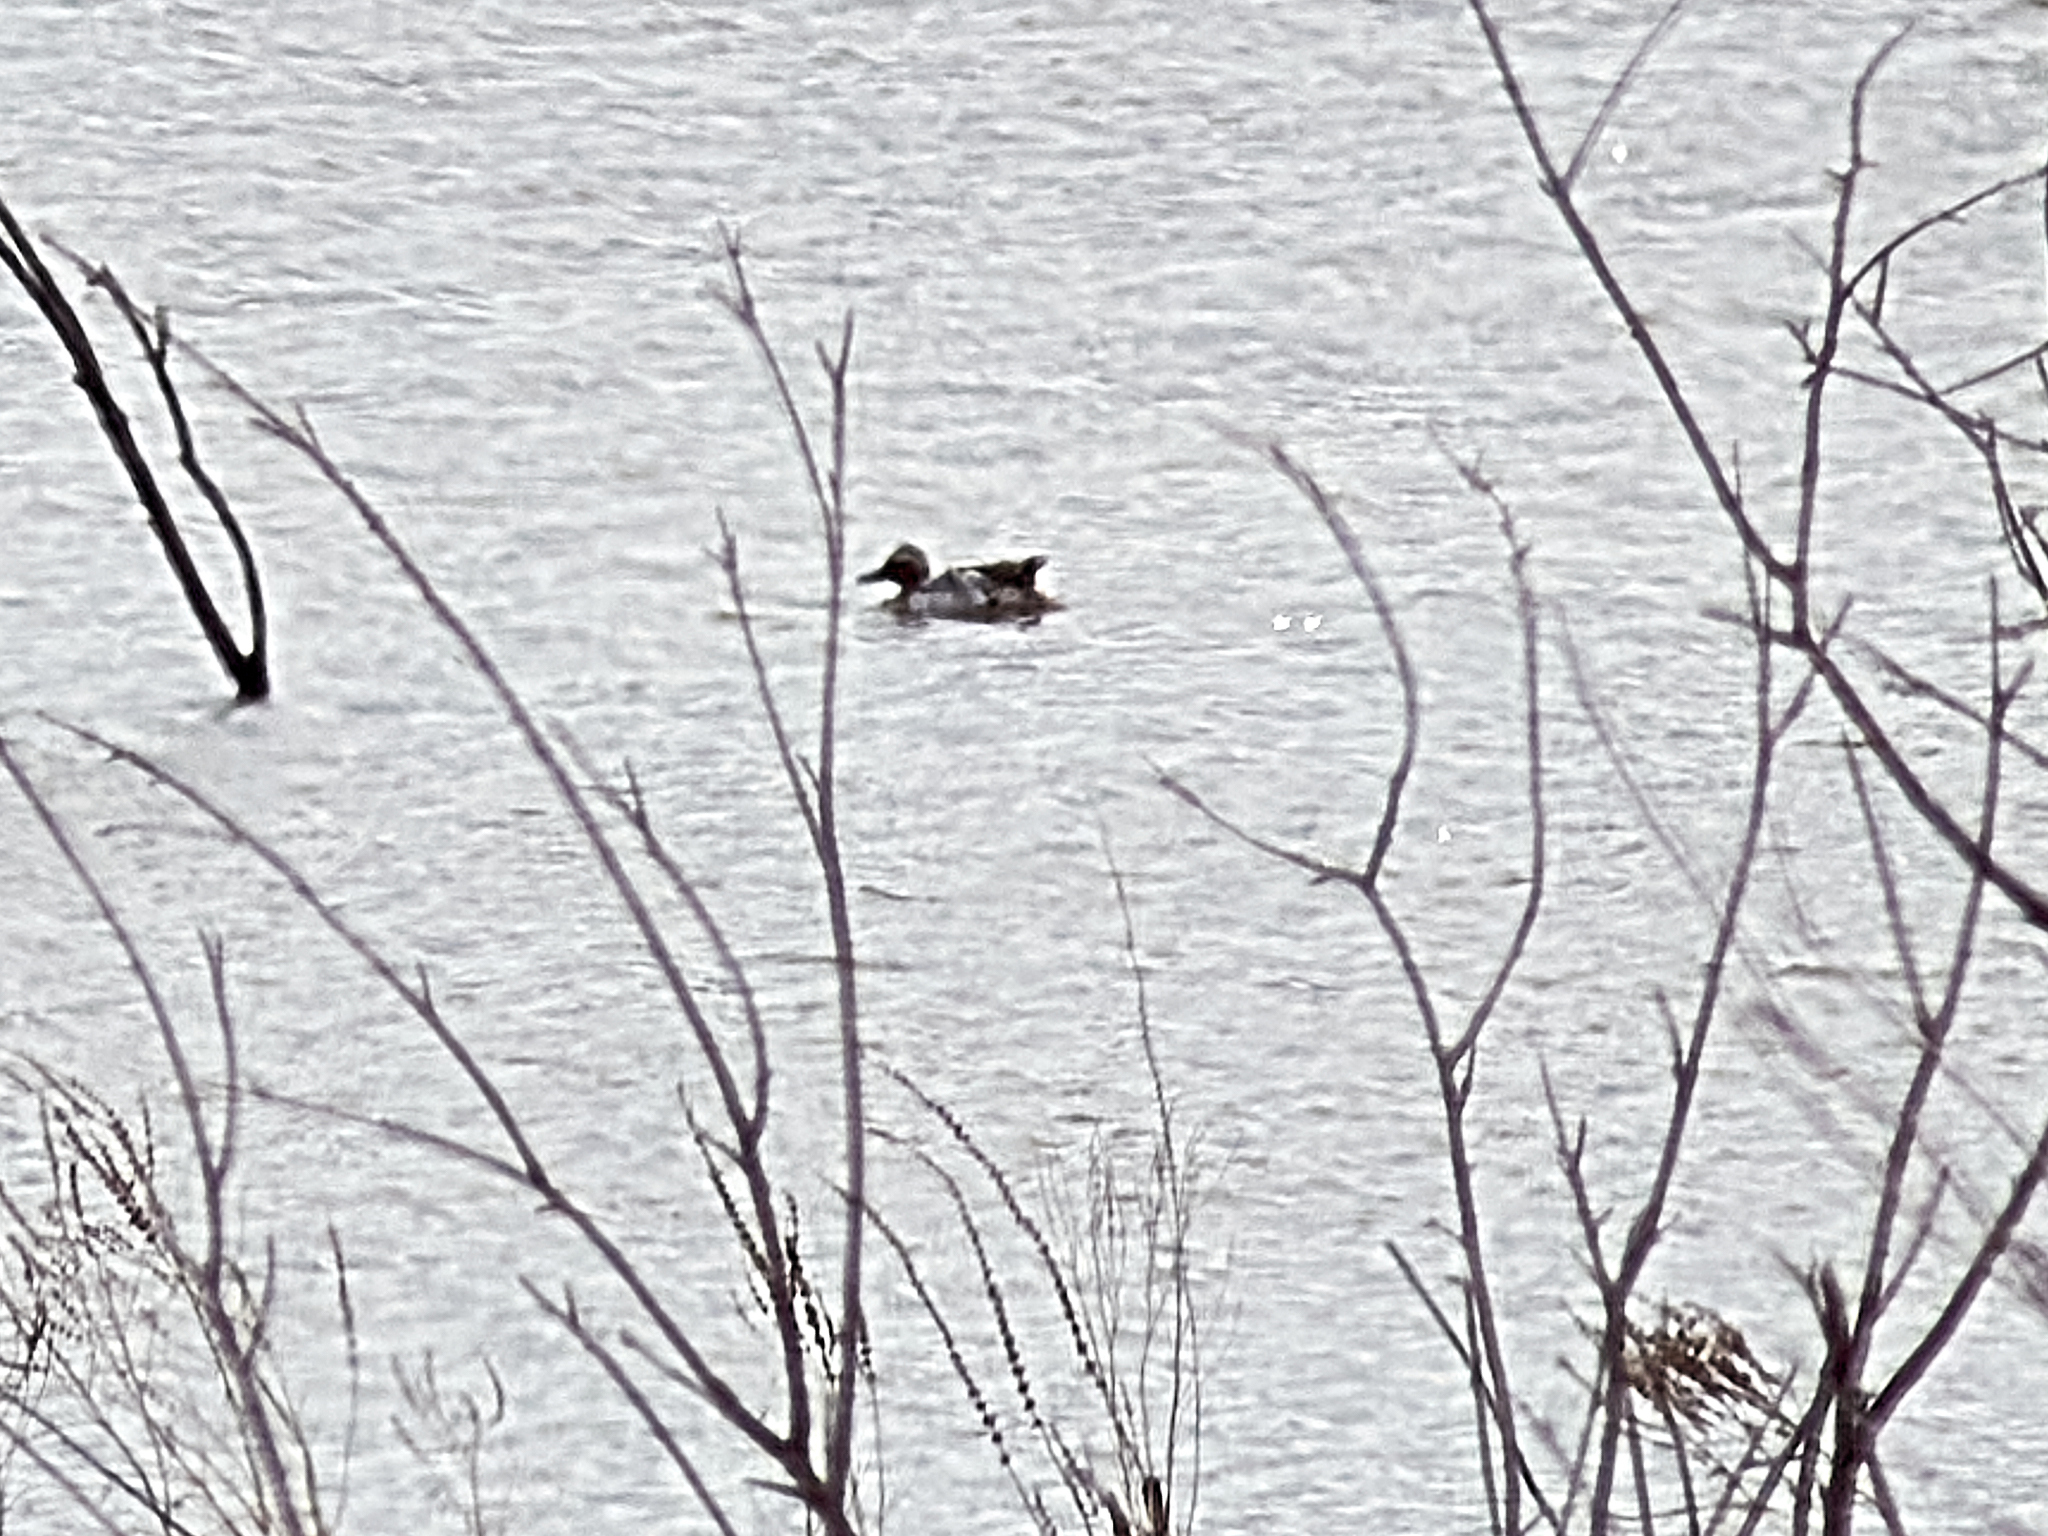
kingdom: Animalia
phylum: Chordata
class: Aves
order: Anseriformes
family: Anatidae
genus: Spatula
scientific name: Spatula querquedula
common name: Garganey
